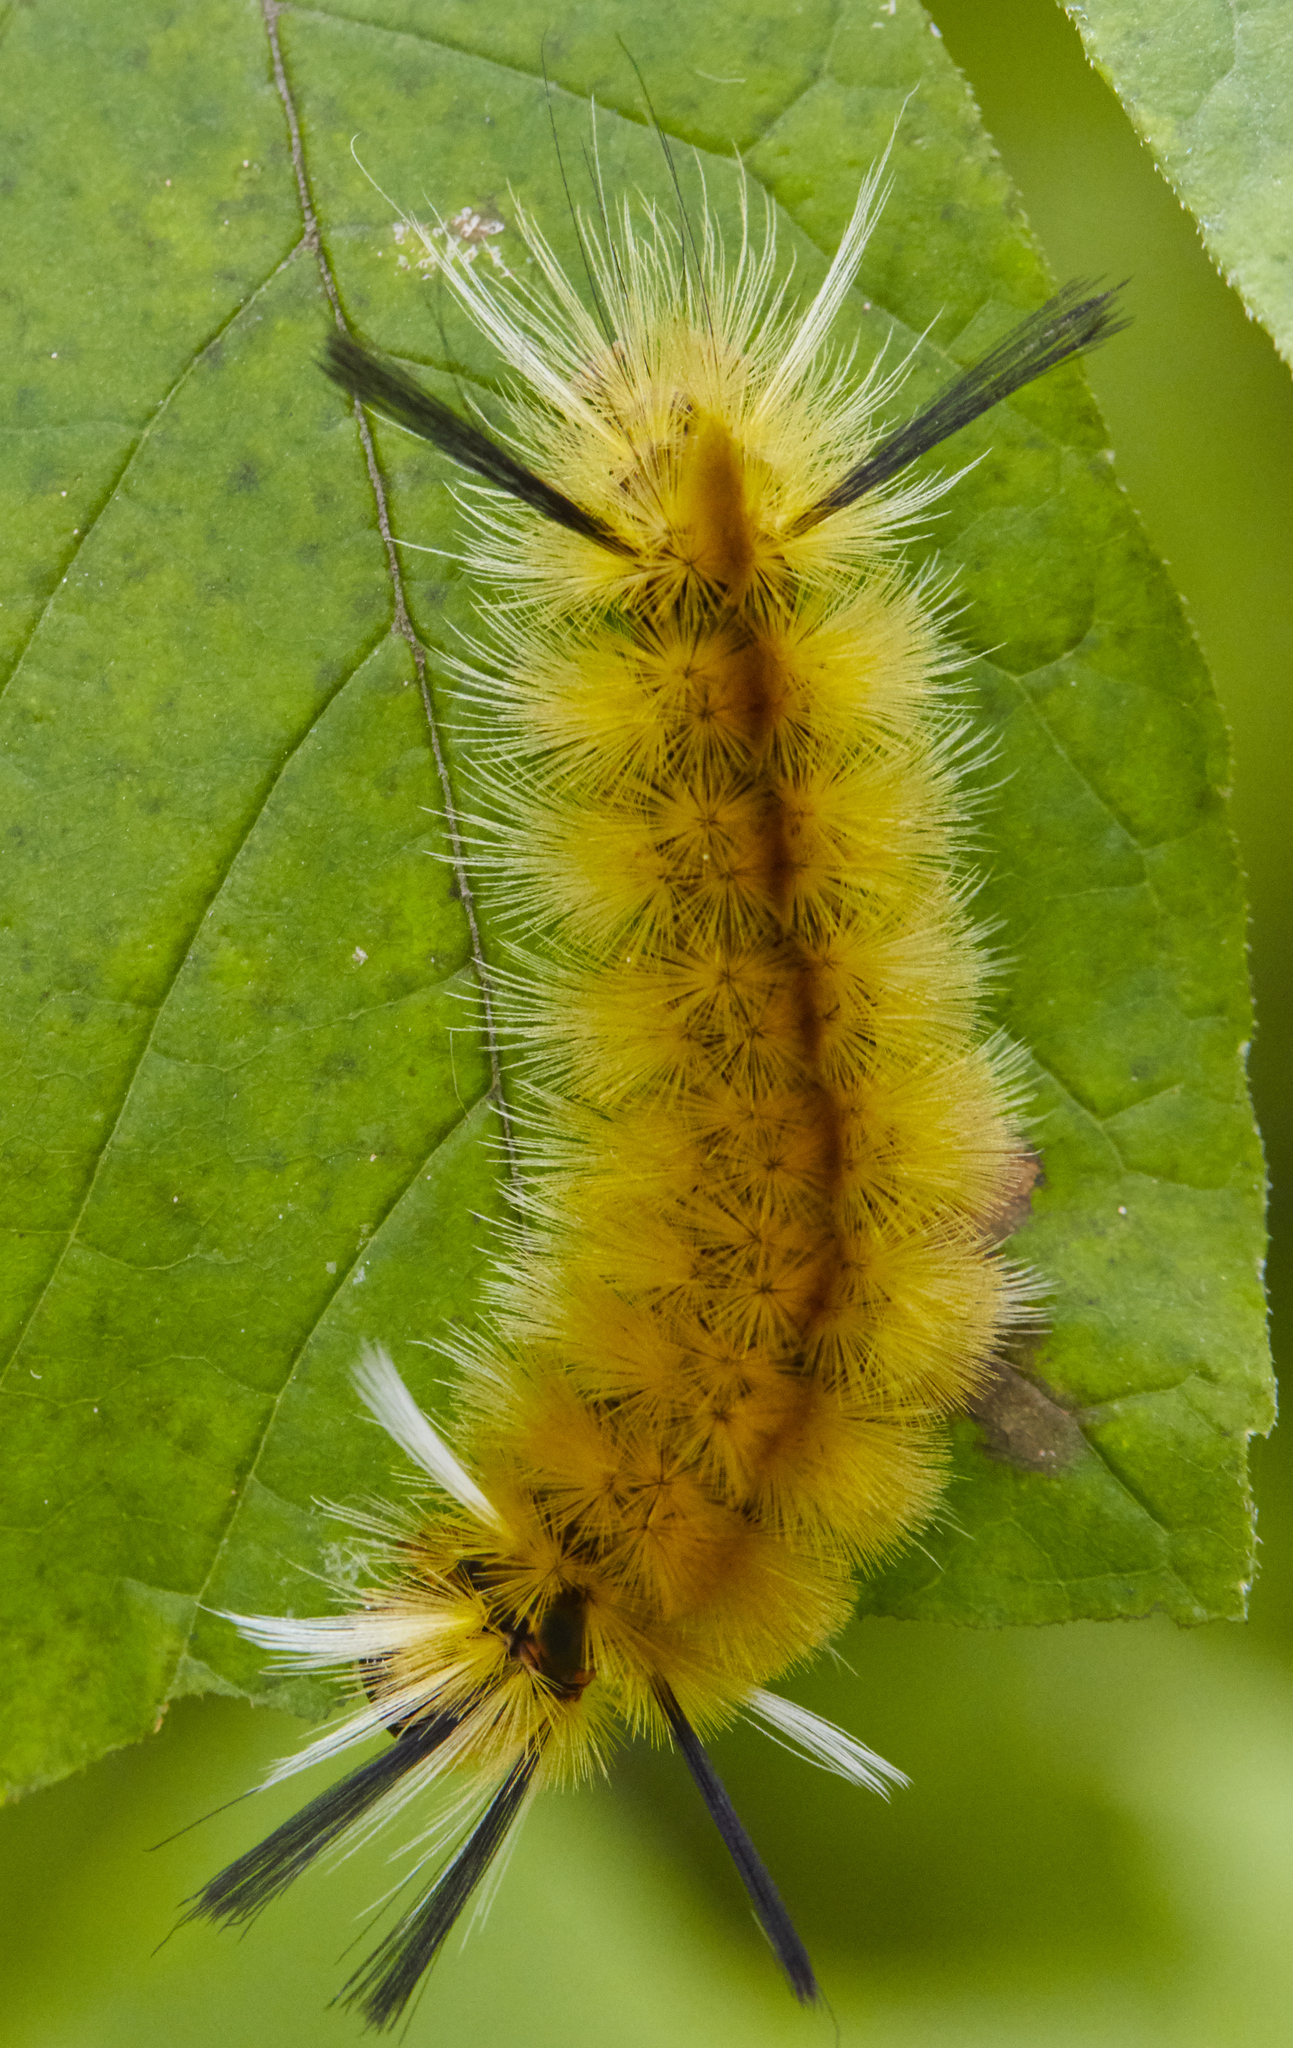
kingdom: Animalia
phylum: Arthropoda
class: Insecta
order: Lepidoptera
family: Erebidae
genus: Halysidota
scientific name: Halysidota tessellaris
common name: Banded tussock moth
